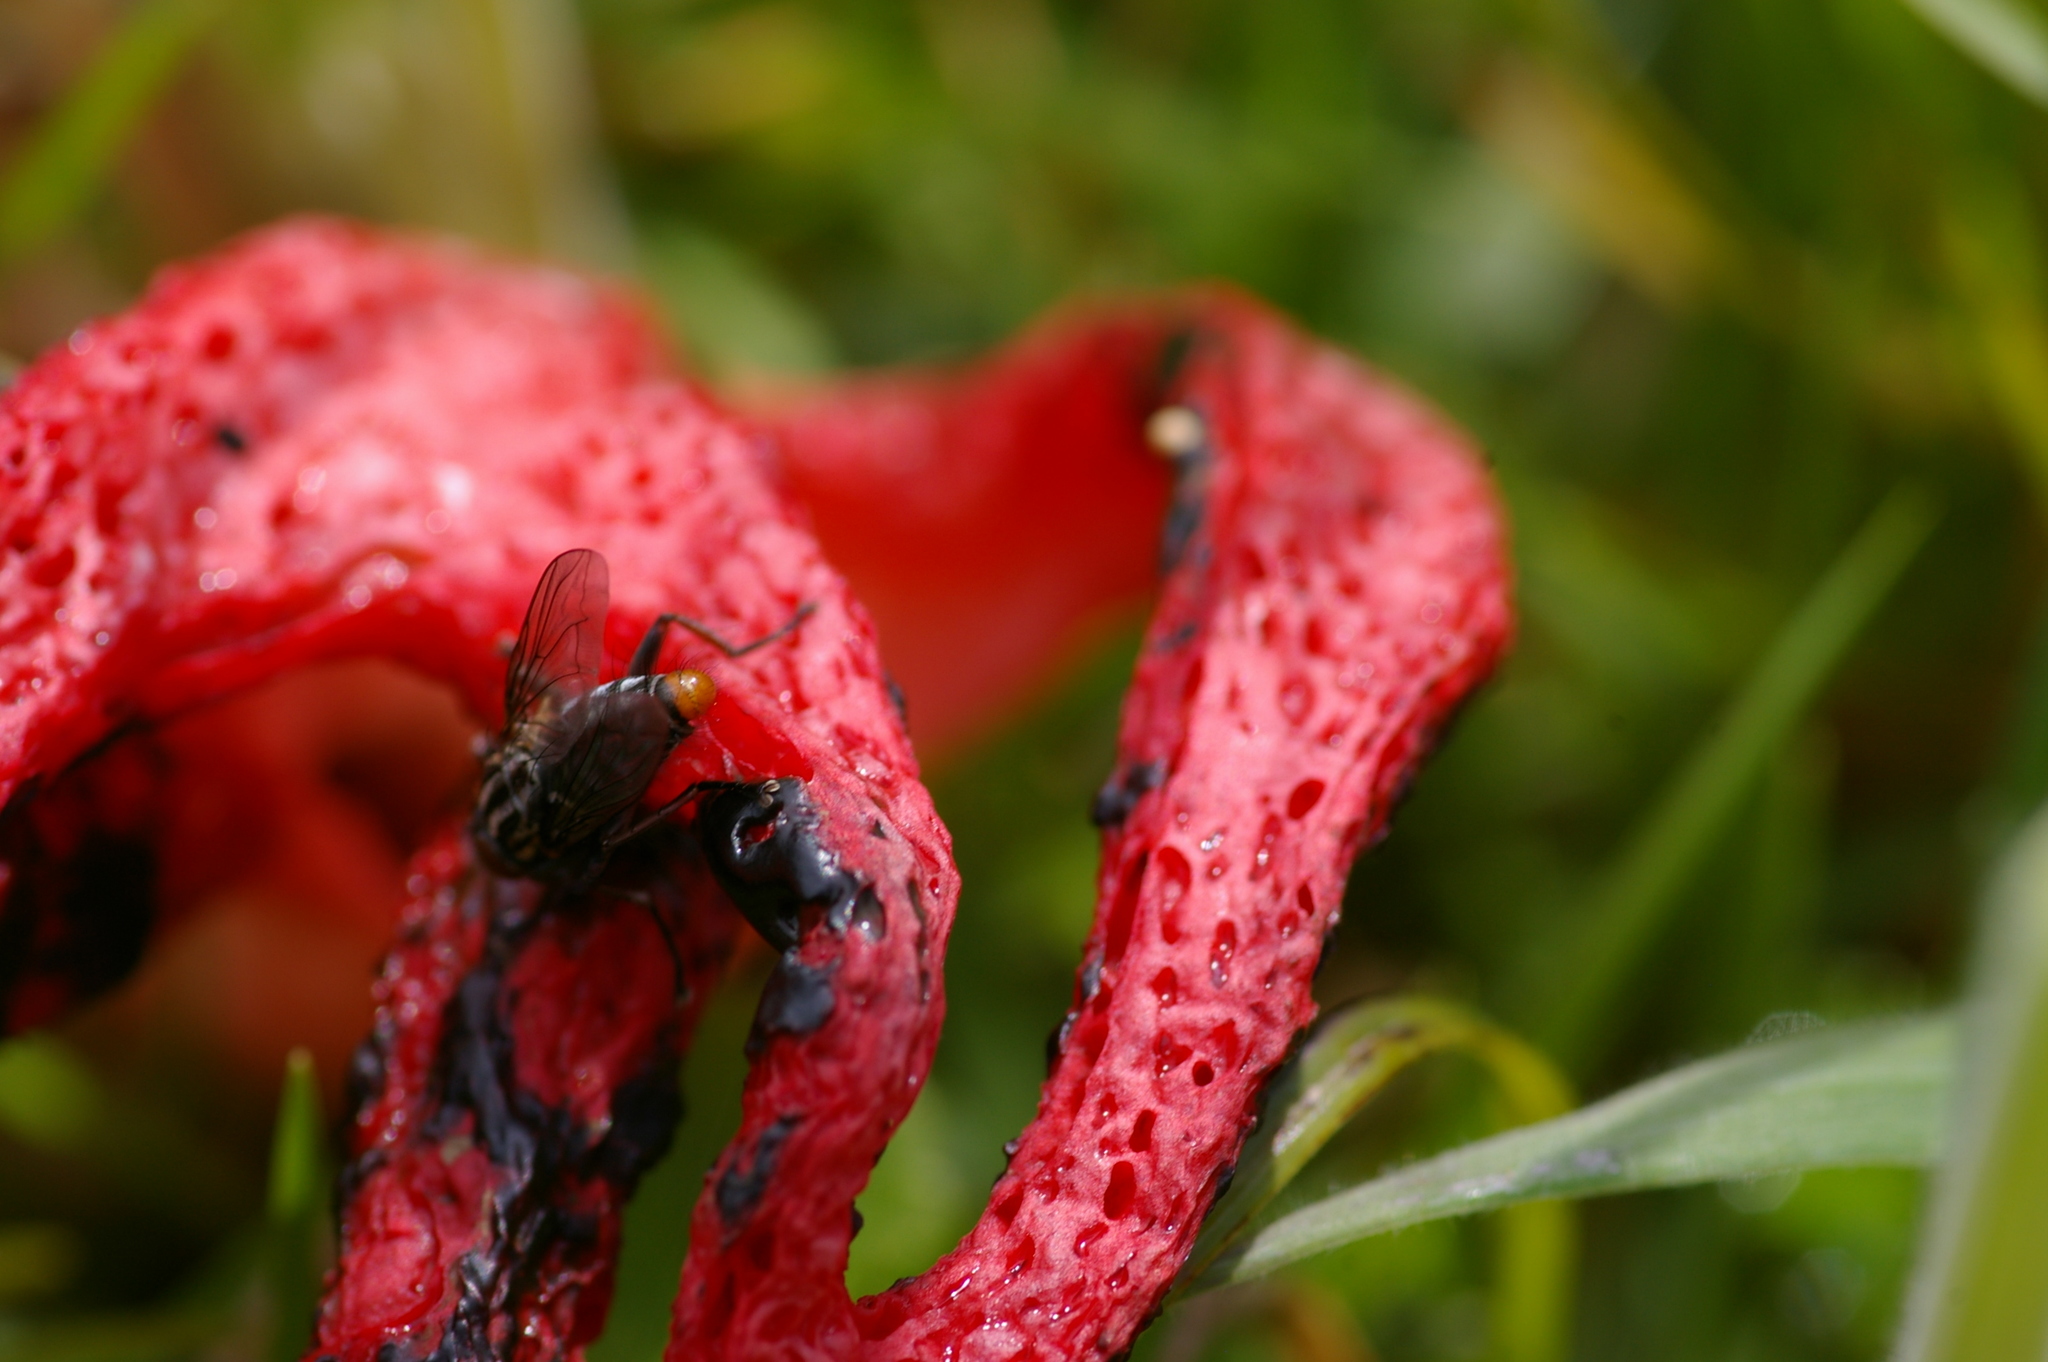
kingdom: Fungi
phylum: Basidiomycota
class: Agaricomycetes
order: Phallales
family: Phallaceae
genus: Clathrus
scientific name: Clathrus archeri
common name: Devil's fingers
